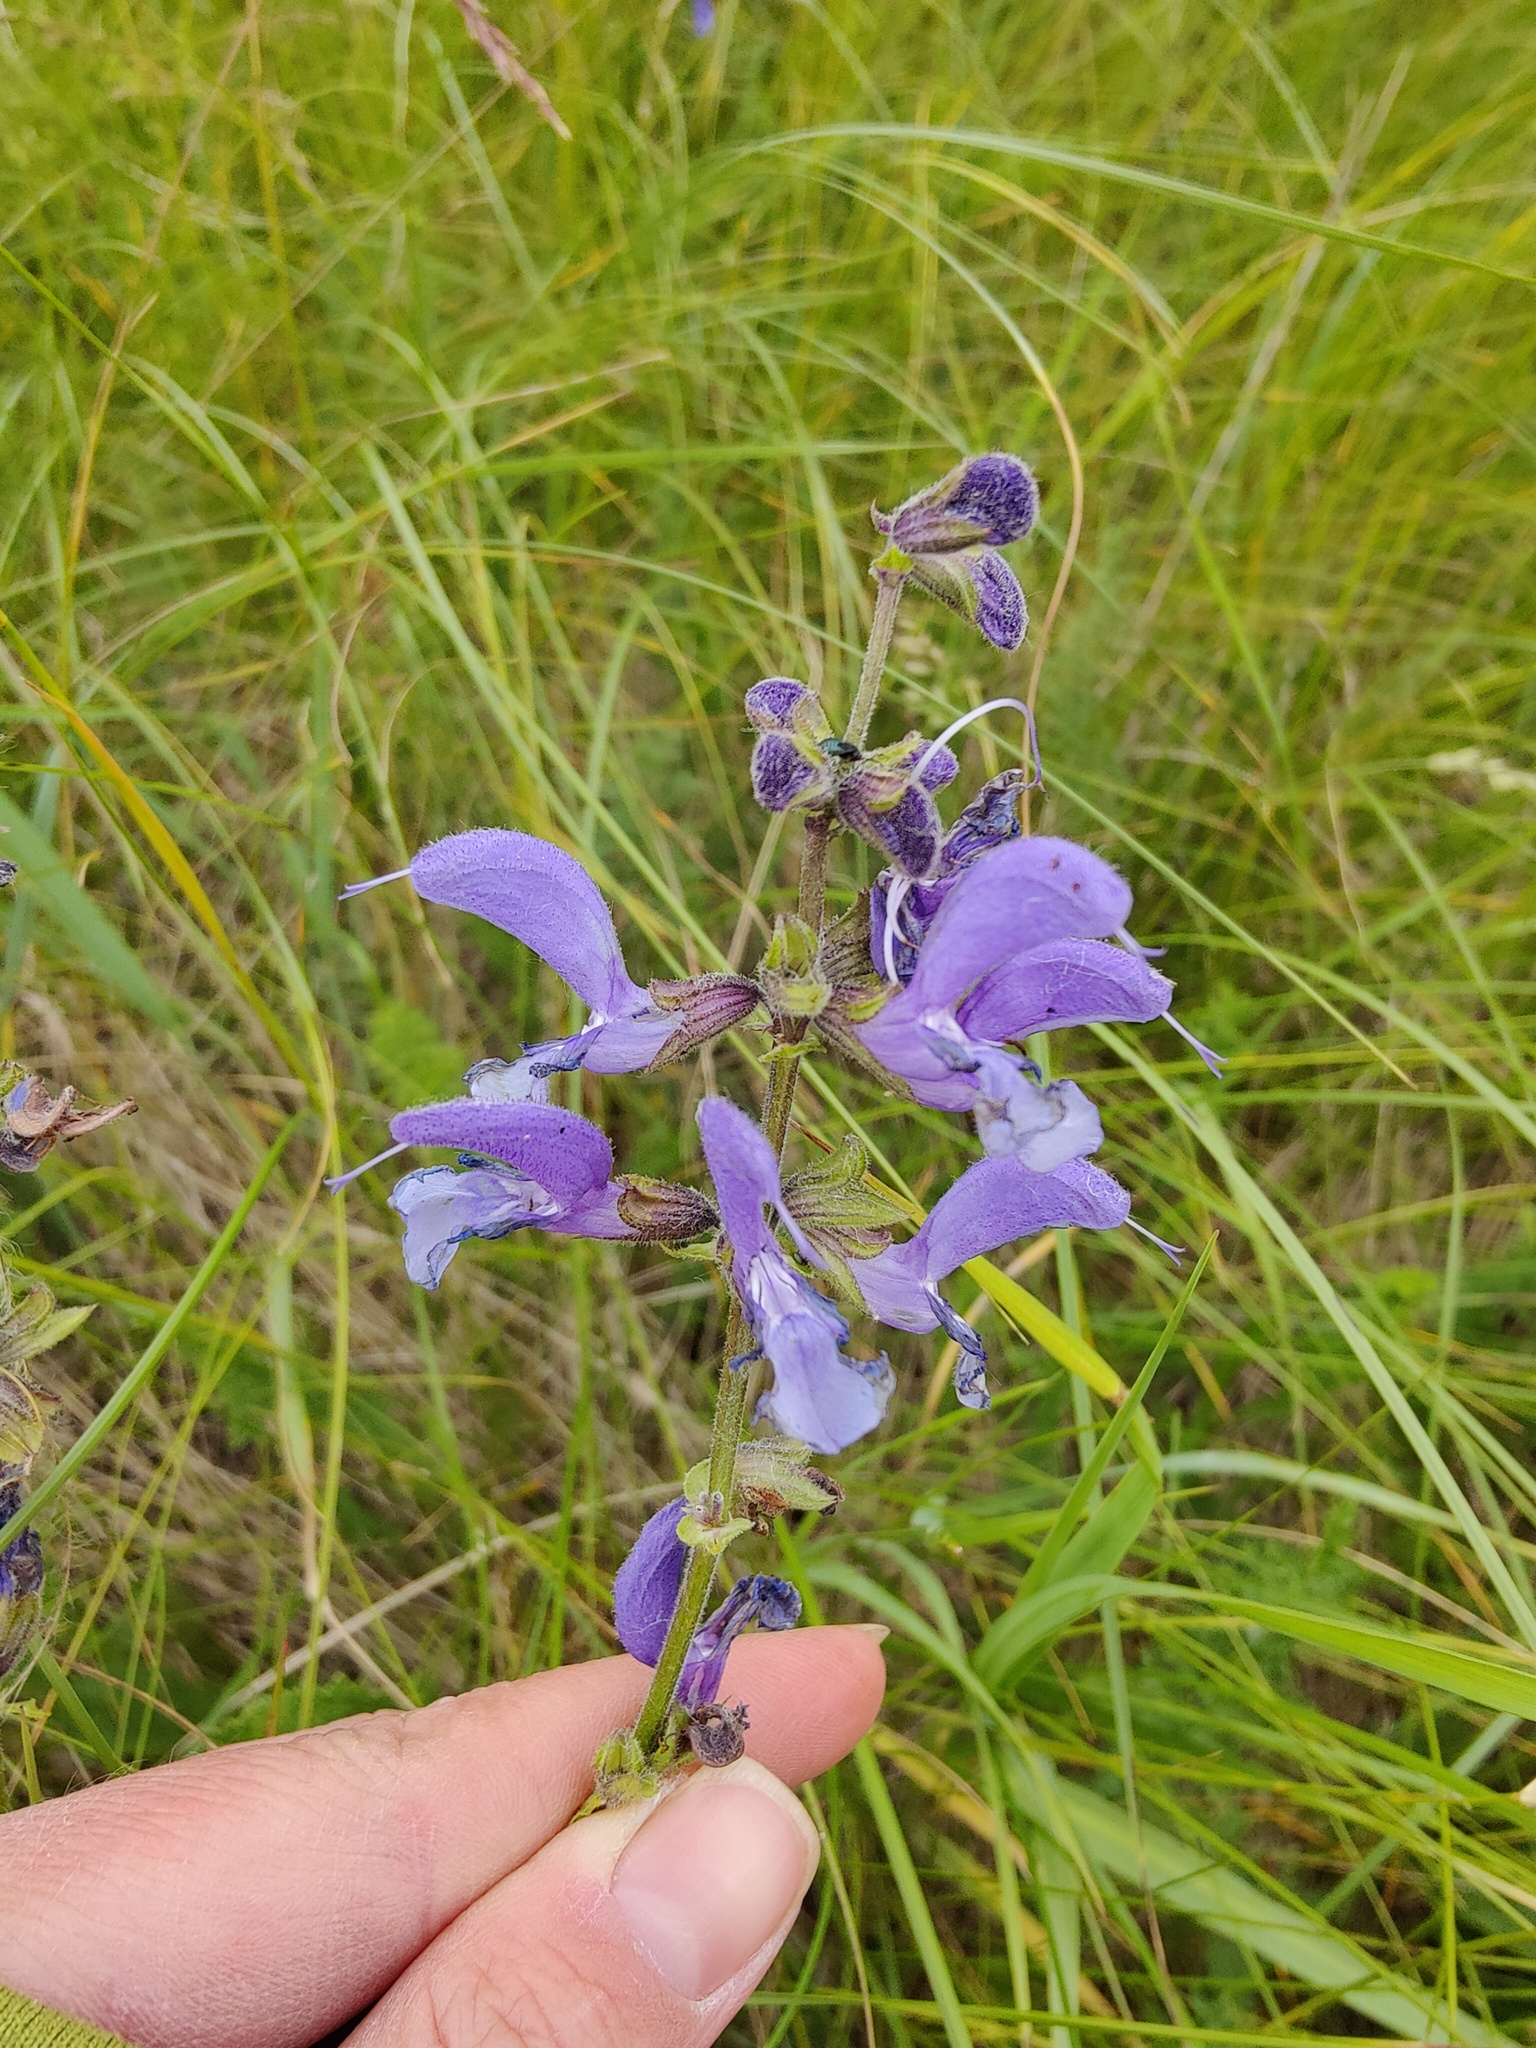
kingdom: Plantae
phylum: Tracheophyta
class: Magnoliopsida
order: Lamiales
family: Lamiaceae
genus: Salvia
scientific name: Salvia pratensis
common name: Meadow sage
